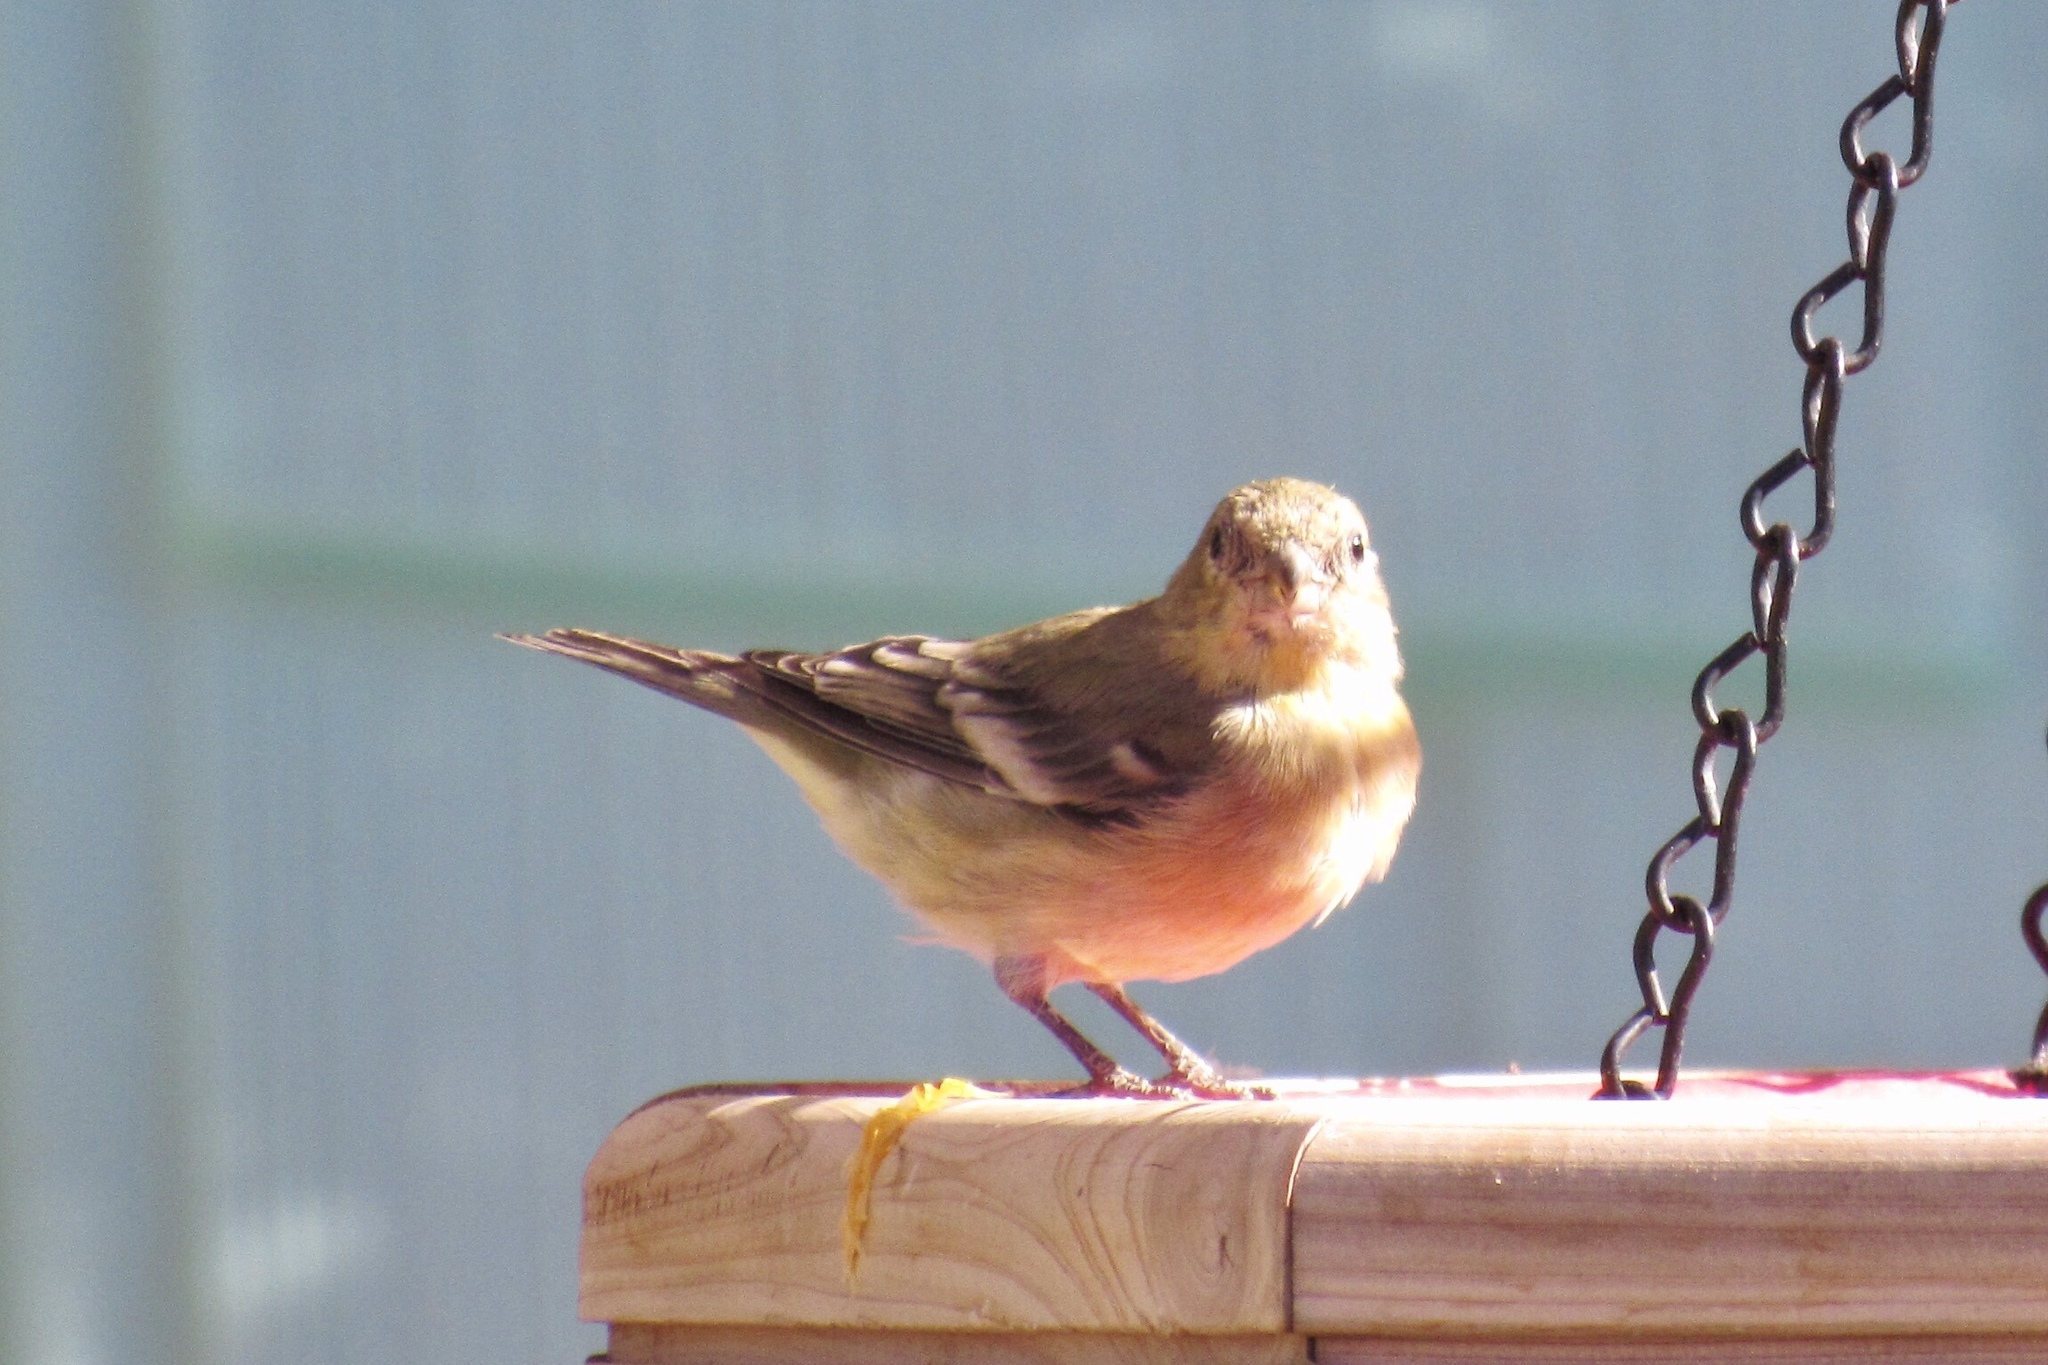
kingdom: Animalia
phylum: Chordata
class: Aves
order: Passeriformes
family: Fringillidae
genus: Spinus
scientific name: Spinus psaltria
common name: Lesser goldfinch
